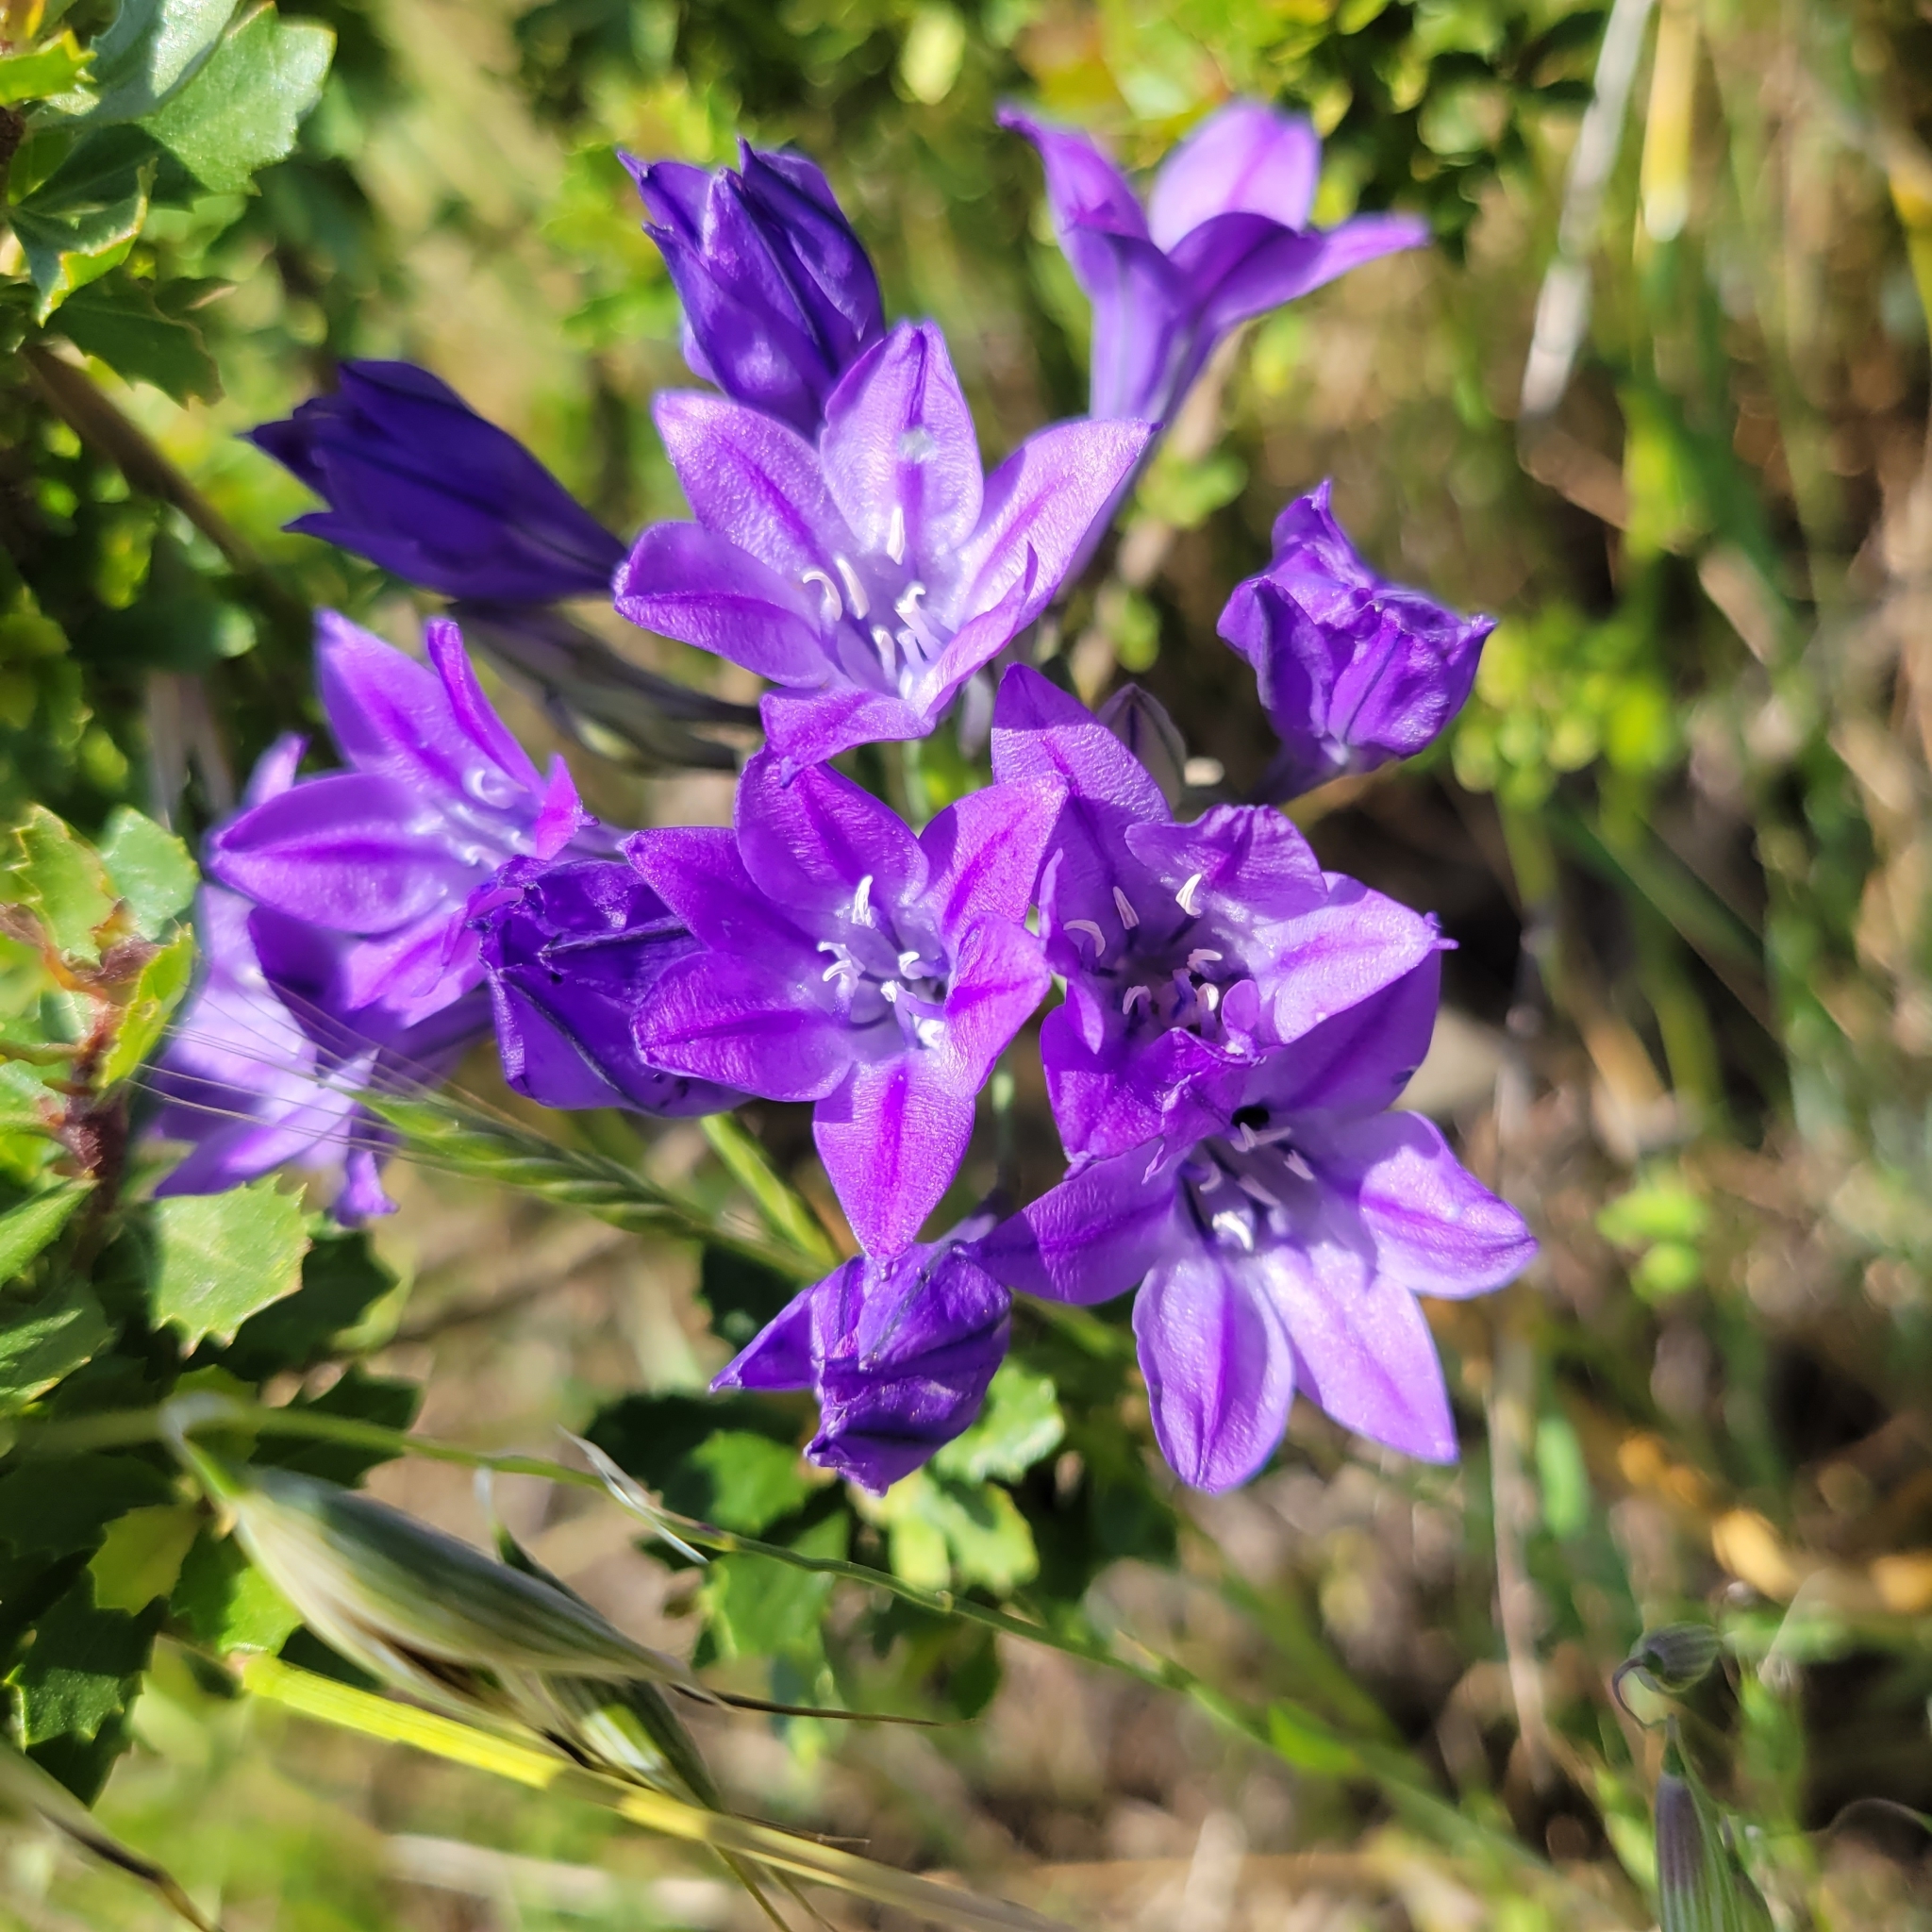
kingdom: Plantae
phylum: Tracheophyta
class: Liliopsida
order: Asparagales
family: Asparagaceae
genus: Triteleia
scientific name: Triteleia laxa
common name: Triplet-lily
